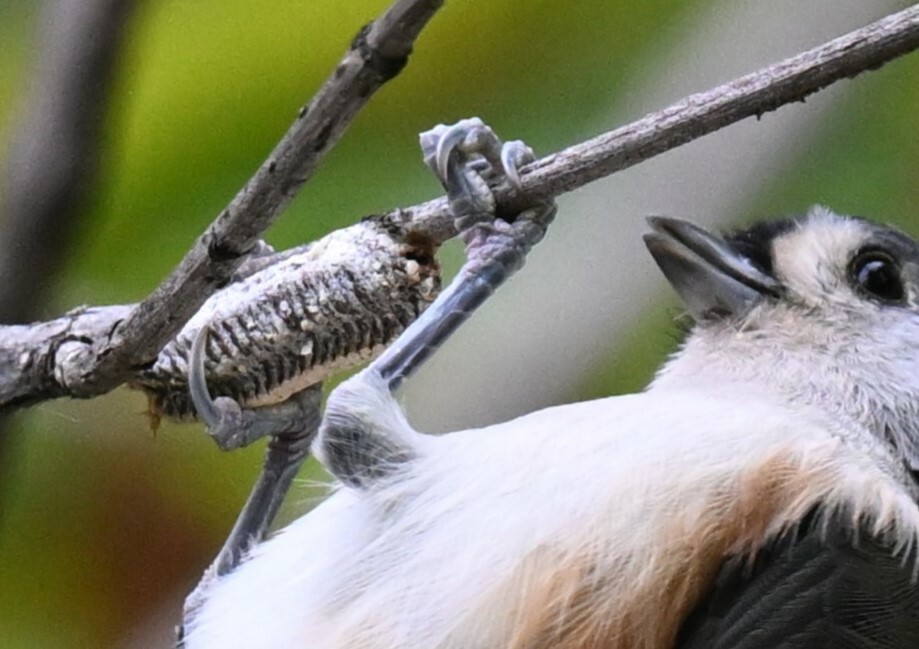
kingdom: Animalia
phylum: Arthropoda
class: Insecta
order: Mantodea
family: Mantidae
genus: Stagmomantis
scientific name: Stagmomantis carolina
